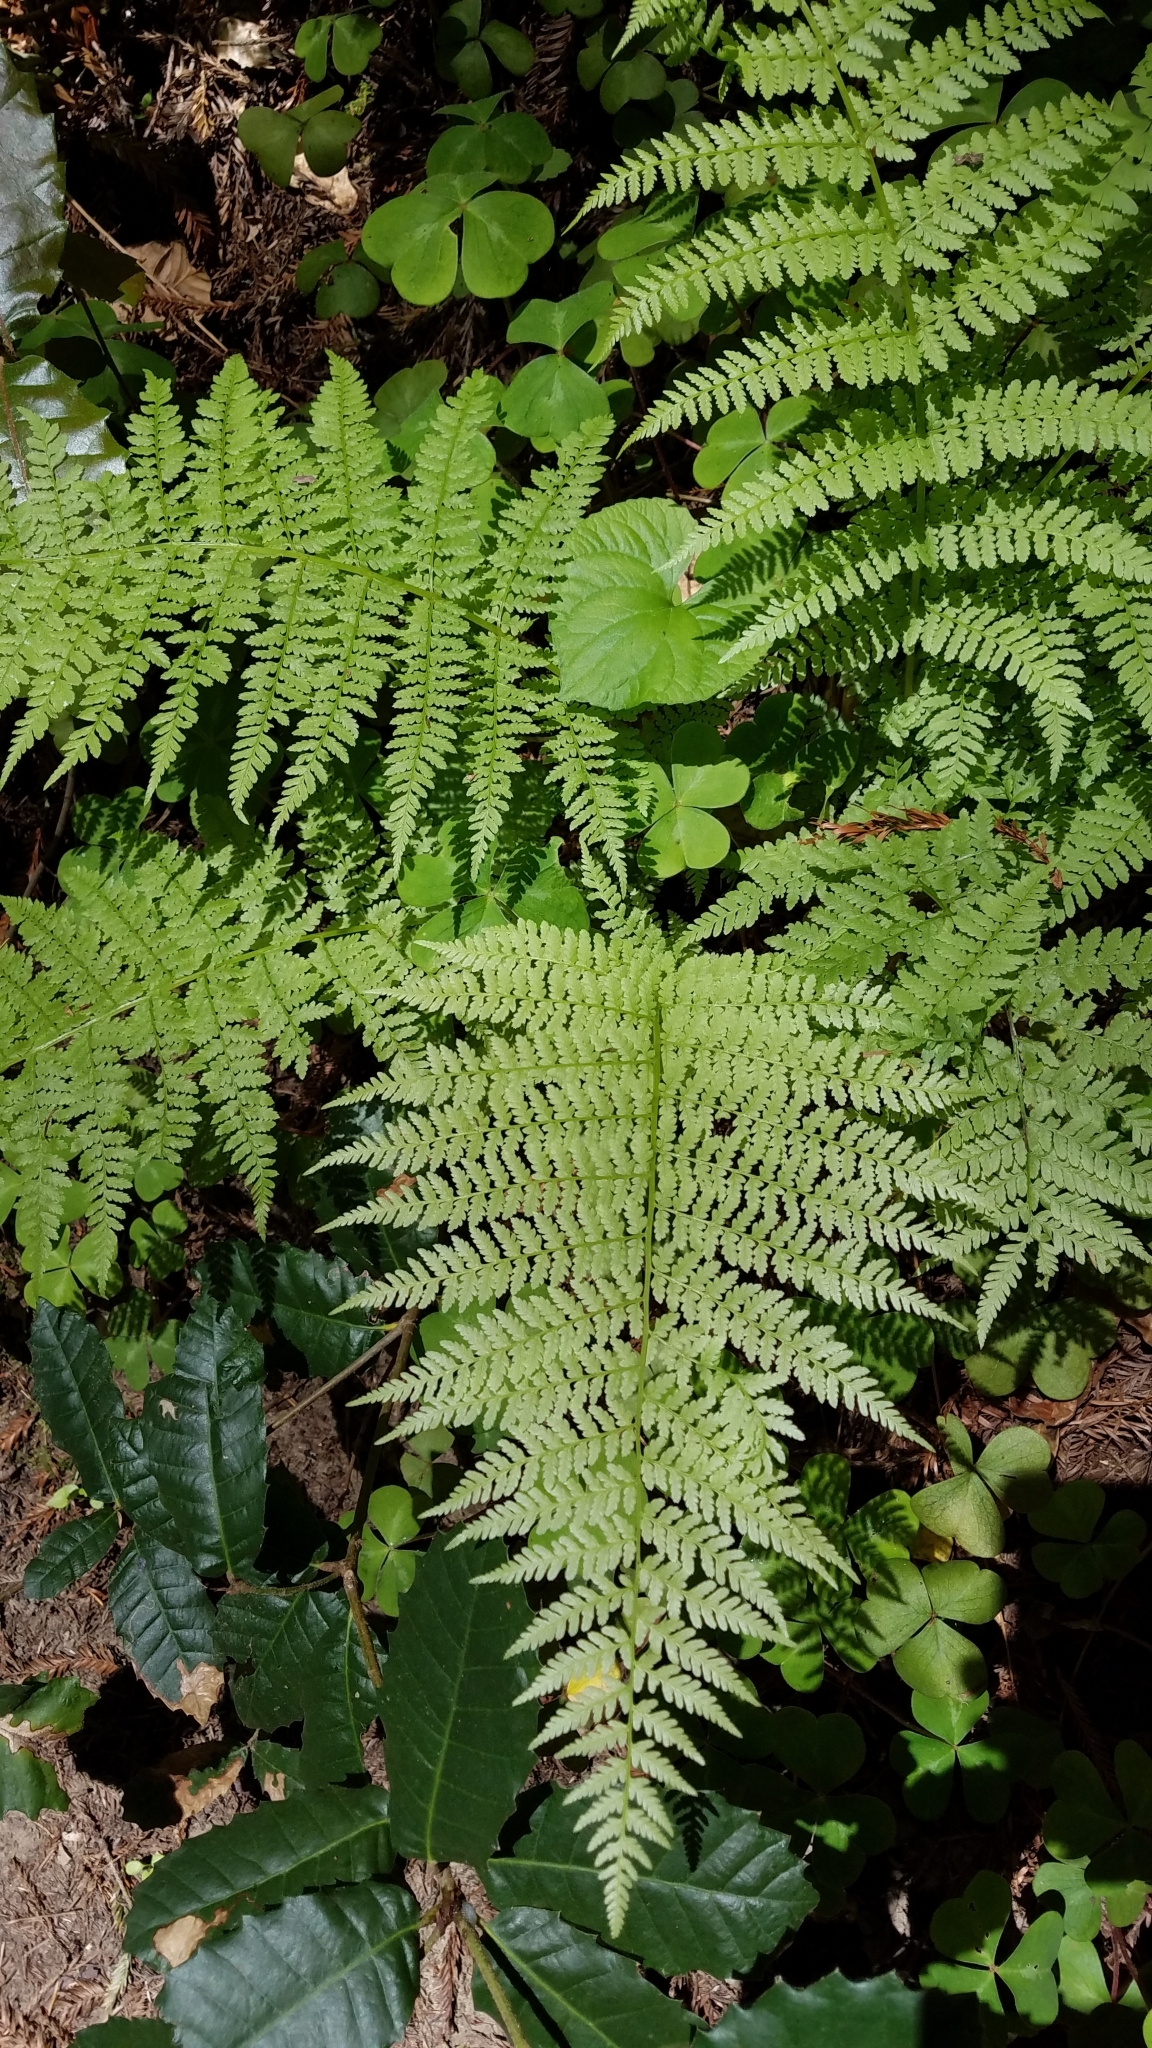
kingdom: Plantae
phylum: Tracheophyta
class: Polypodiopsida
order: Polypodiales
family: Athyriaceae
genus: Athyrium
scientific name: Athyrium filix-femina
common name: Lady fern
